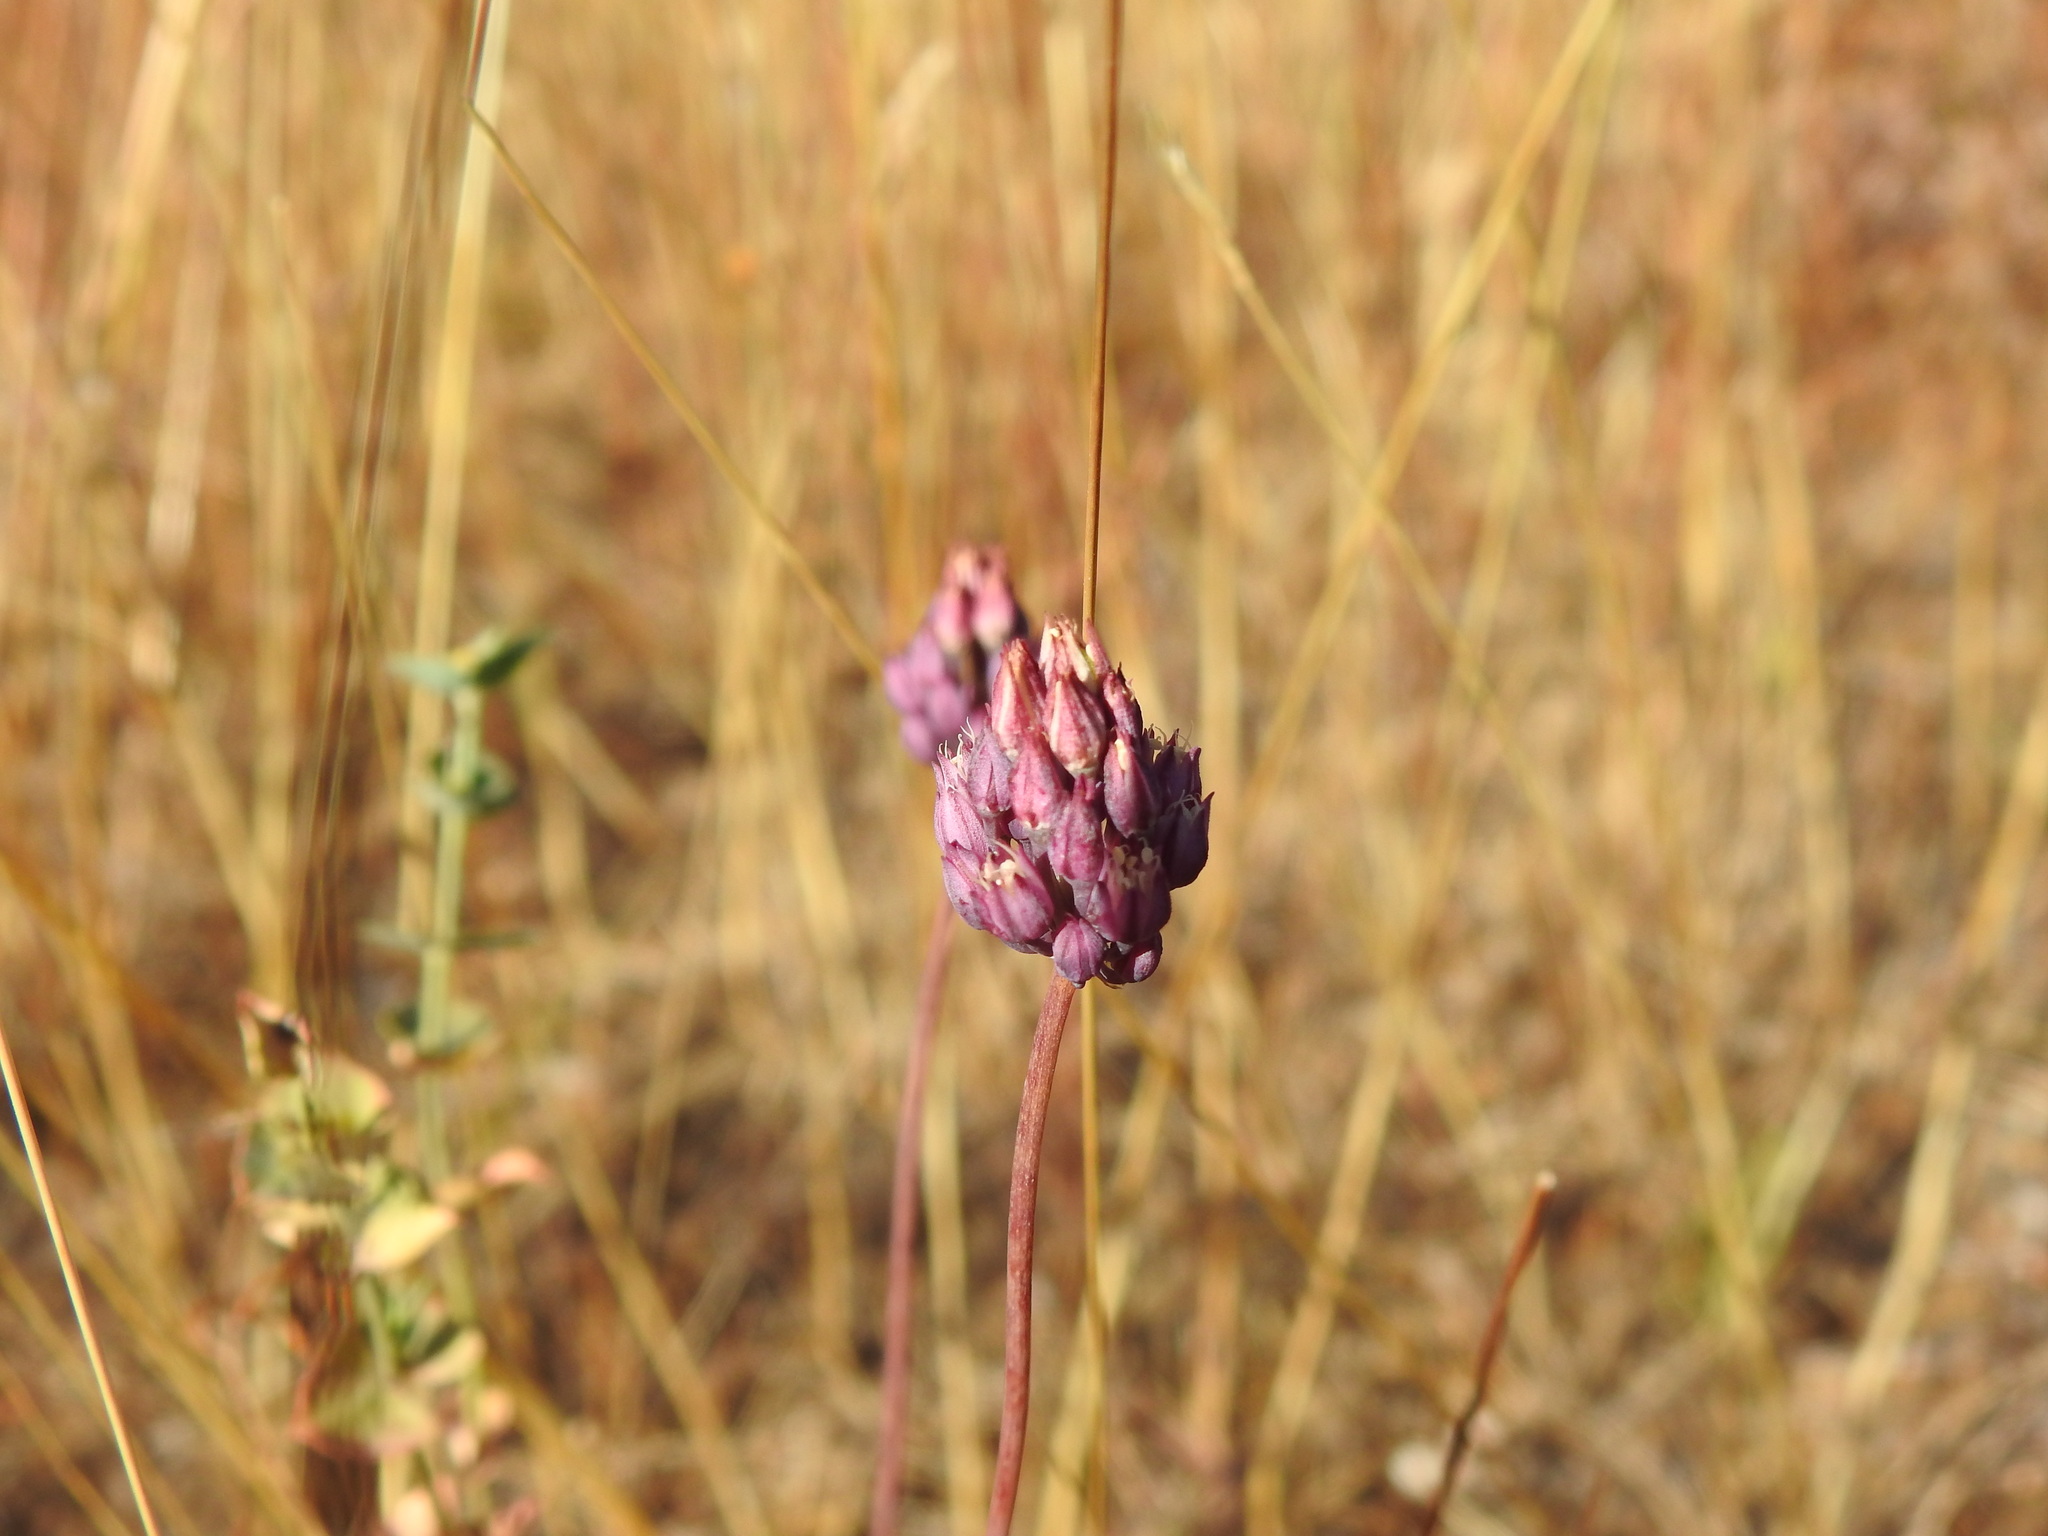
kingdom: Plantae
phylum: Tracheophyta
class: Liliopsida
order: Asparagales
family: Amaryllidaceae
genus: Allium
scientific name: Allium pruinatum
